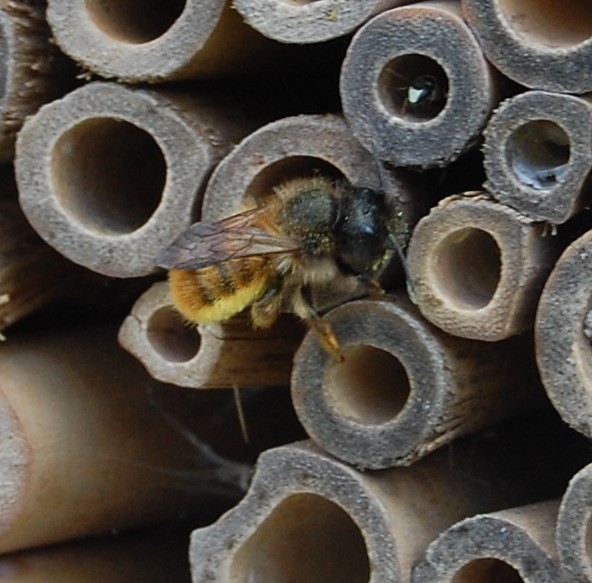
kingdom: Animalia
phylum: Arthropoda
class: Insecta
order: Hymenoptera
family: Megachilidae
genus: Osmia
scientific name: Osmia bicornis
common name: Red mason bee
